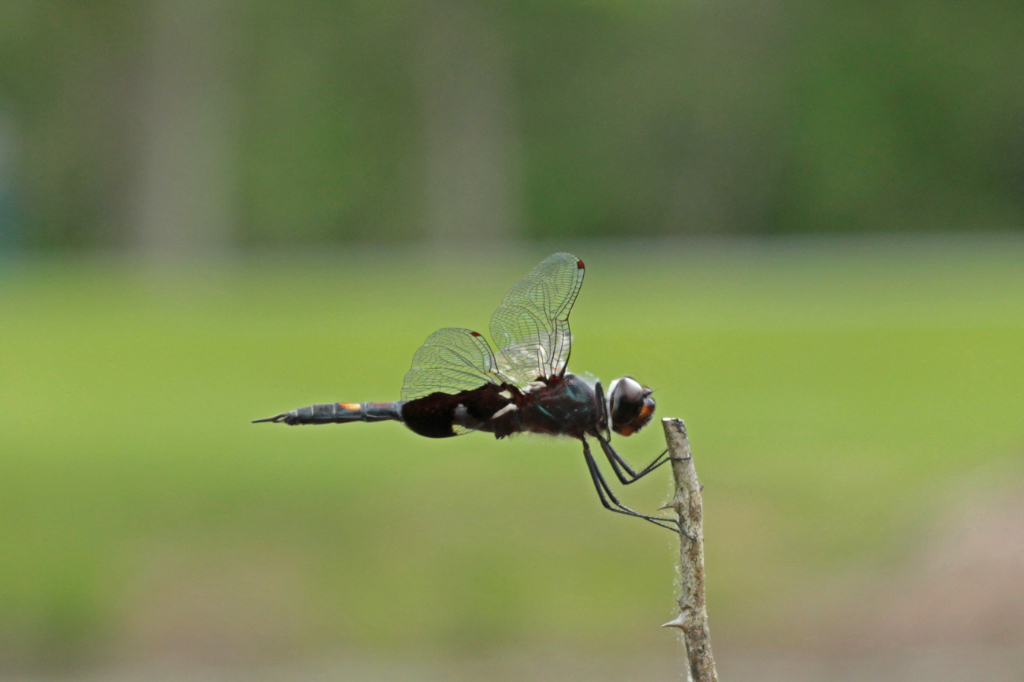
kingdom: Animalia
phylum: Arthropoda
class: Insecta
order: Odonata
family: Libellulidae
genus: Tramea
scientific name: Tramea lacerata
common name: Black saddlebags
